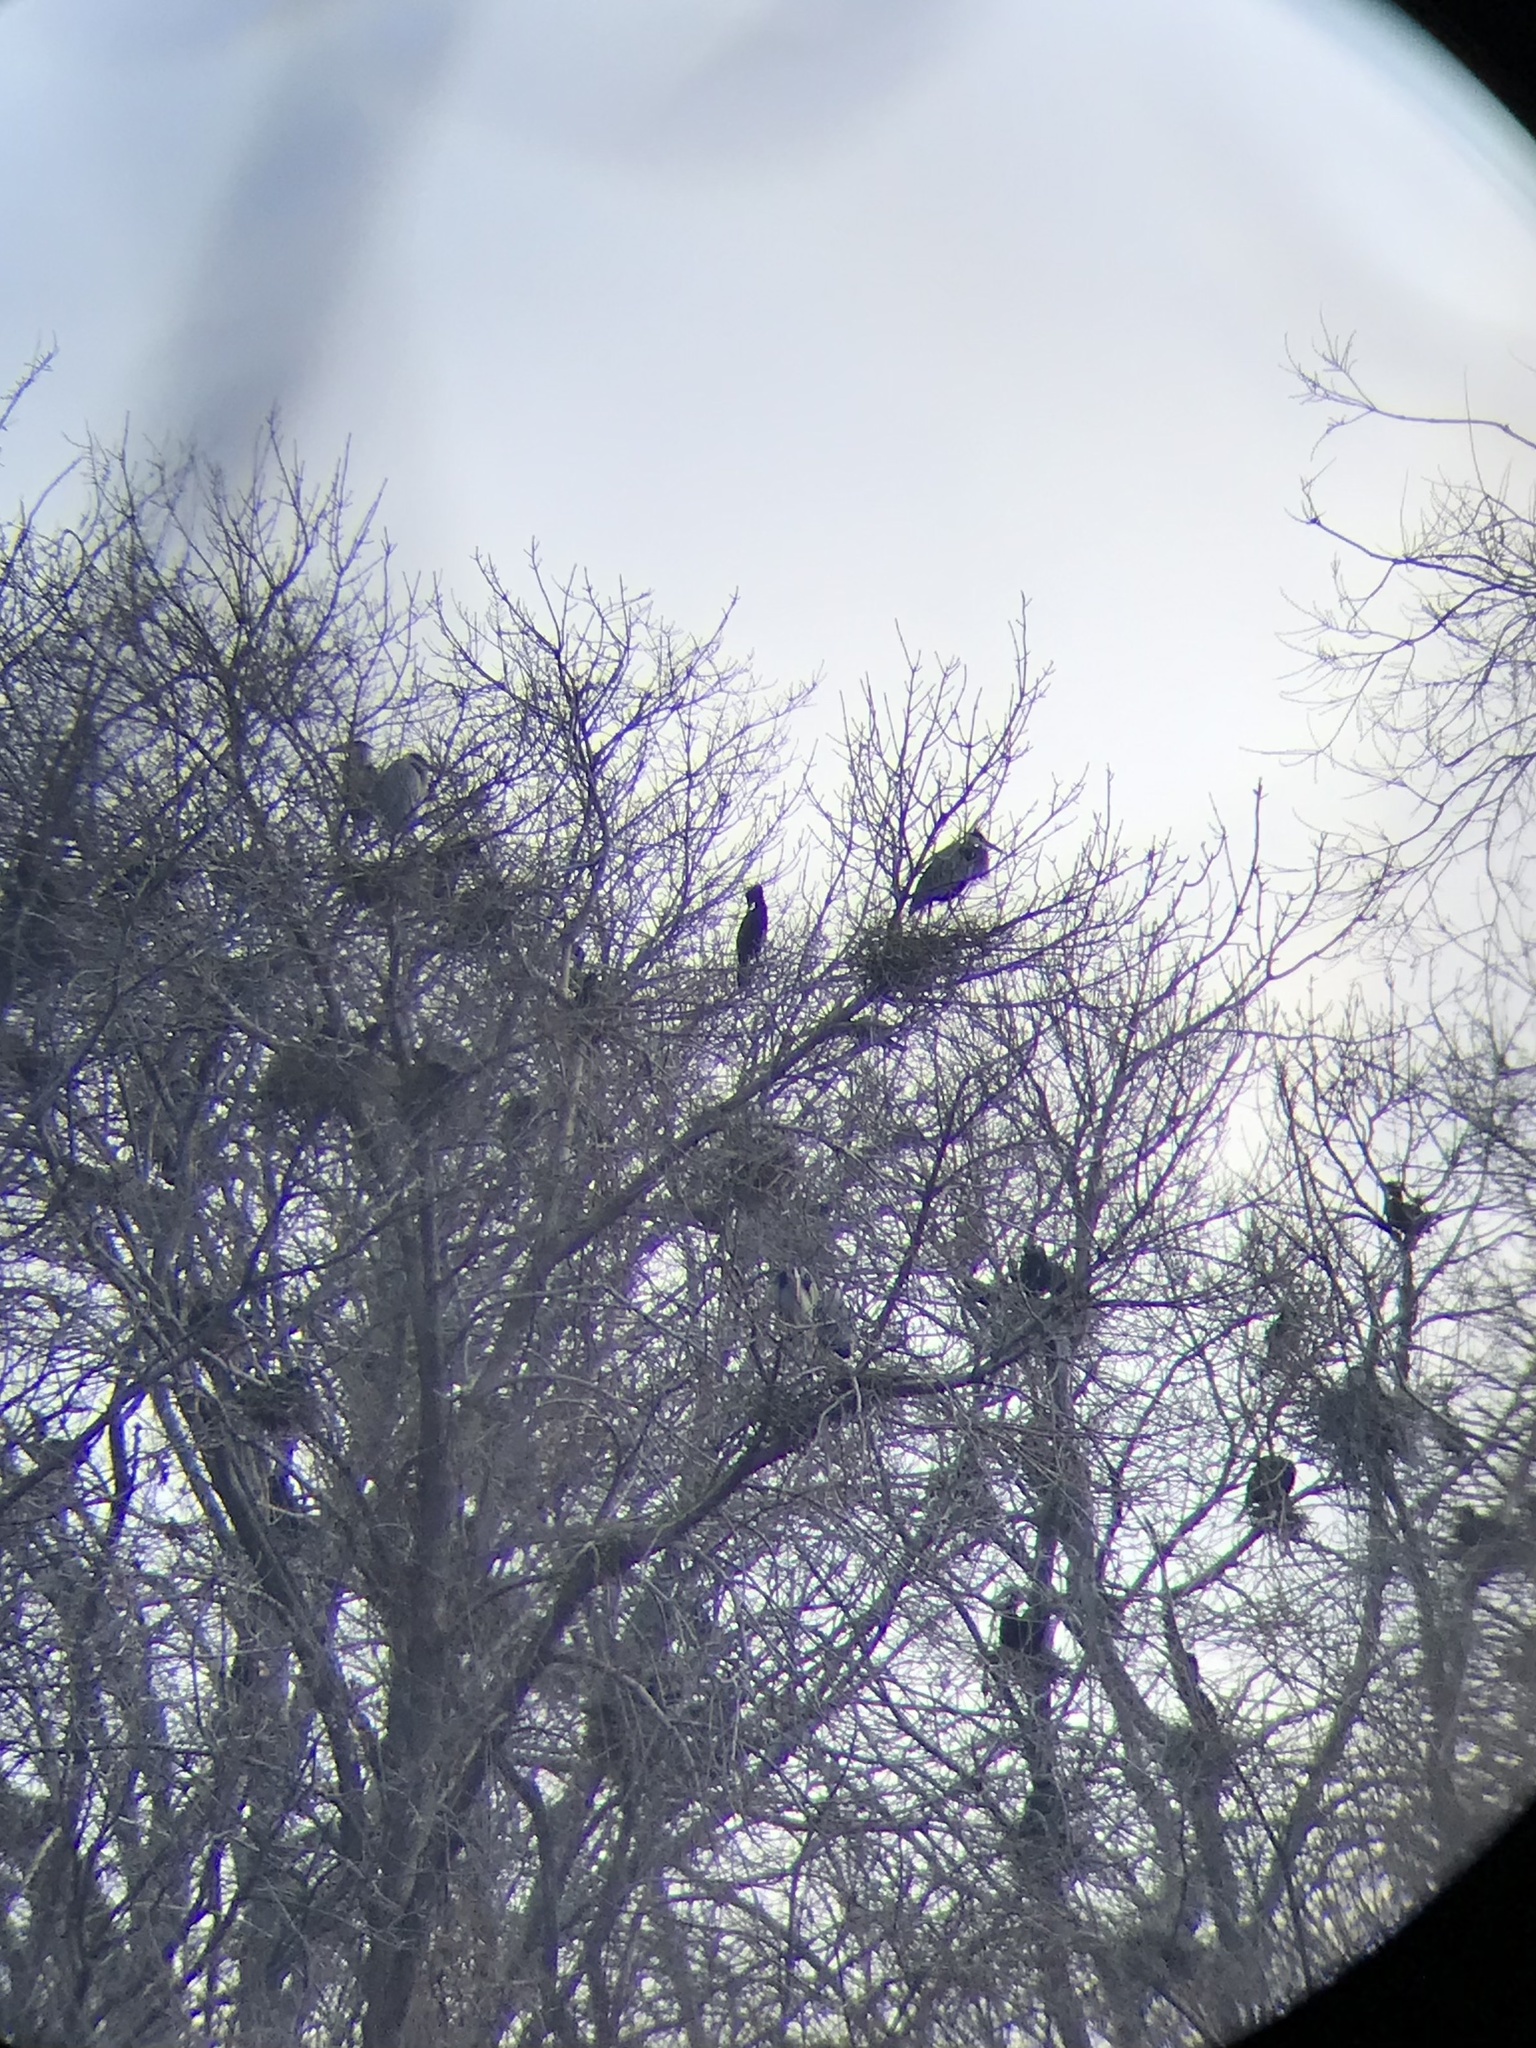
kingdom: Animalia
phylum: Chordata
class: Aves
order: Suliformes
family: Phalacrocoracidae
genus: Phalacrocorax
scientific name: Phalacrocorax auritus
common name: Double-crested cormorant
